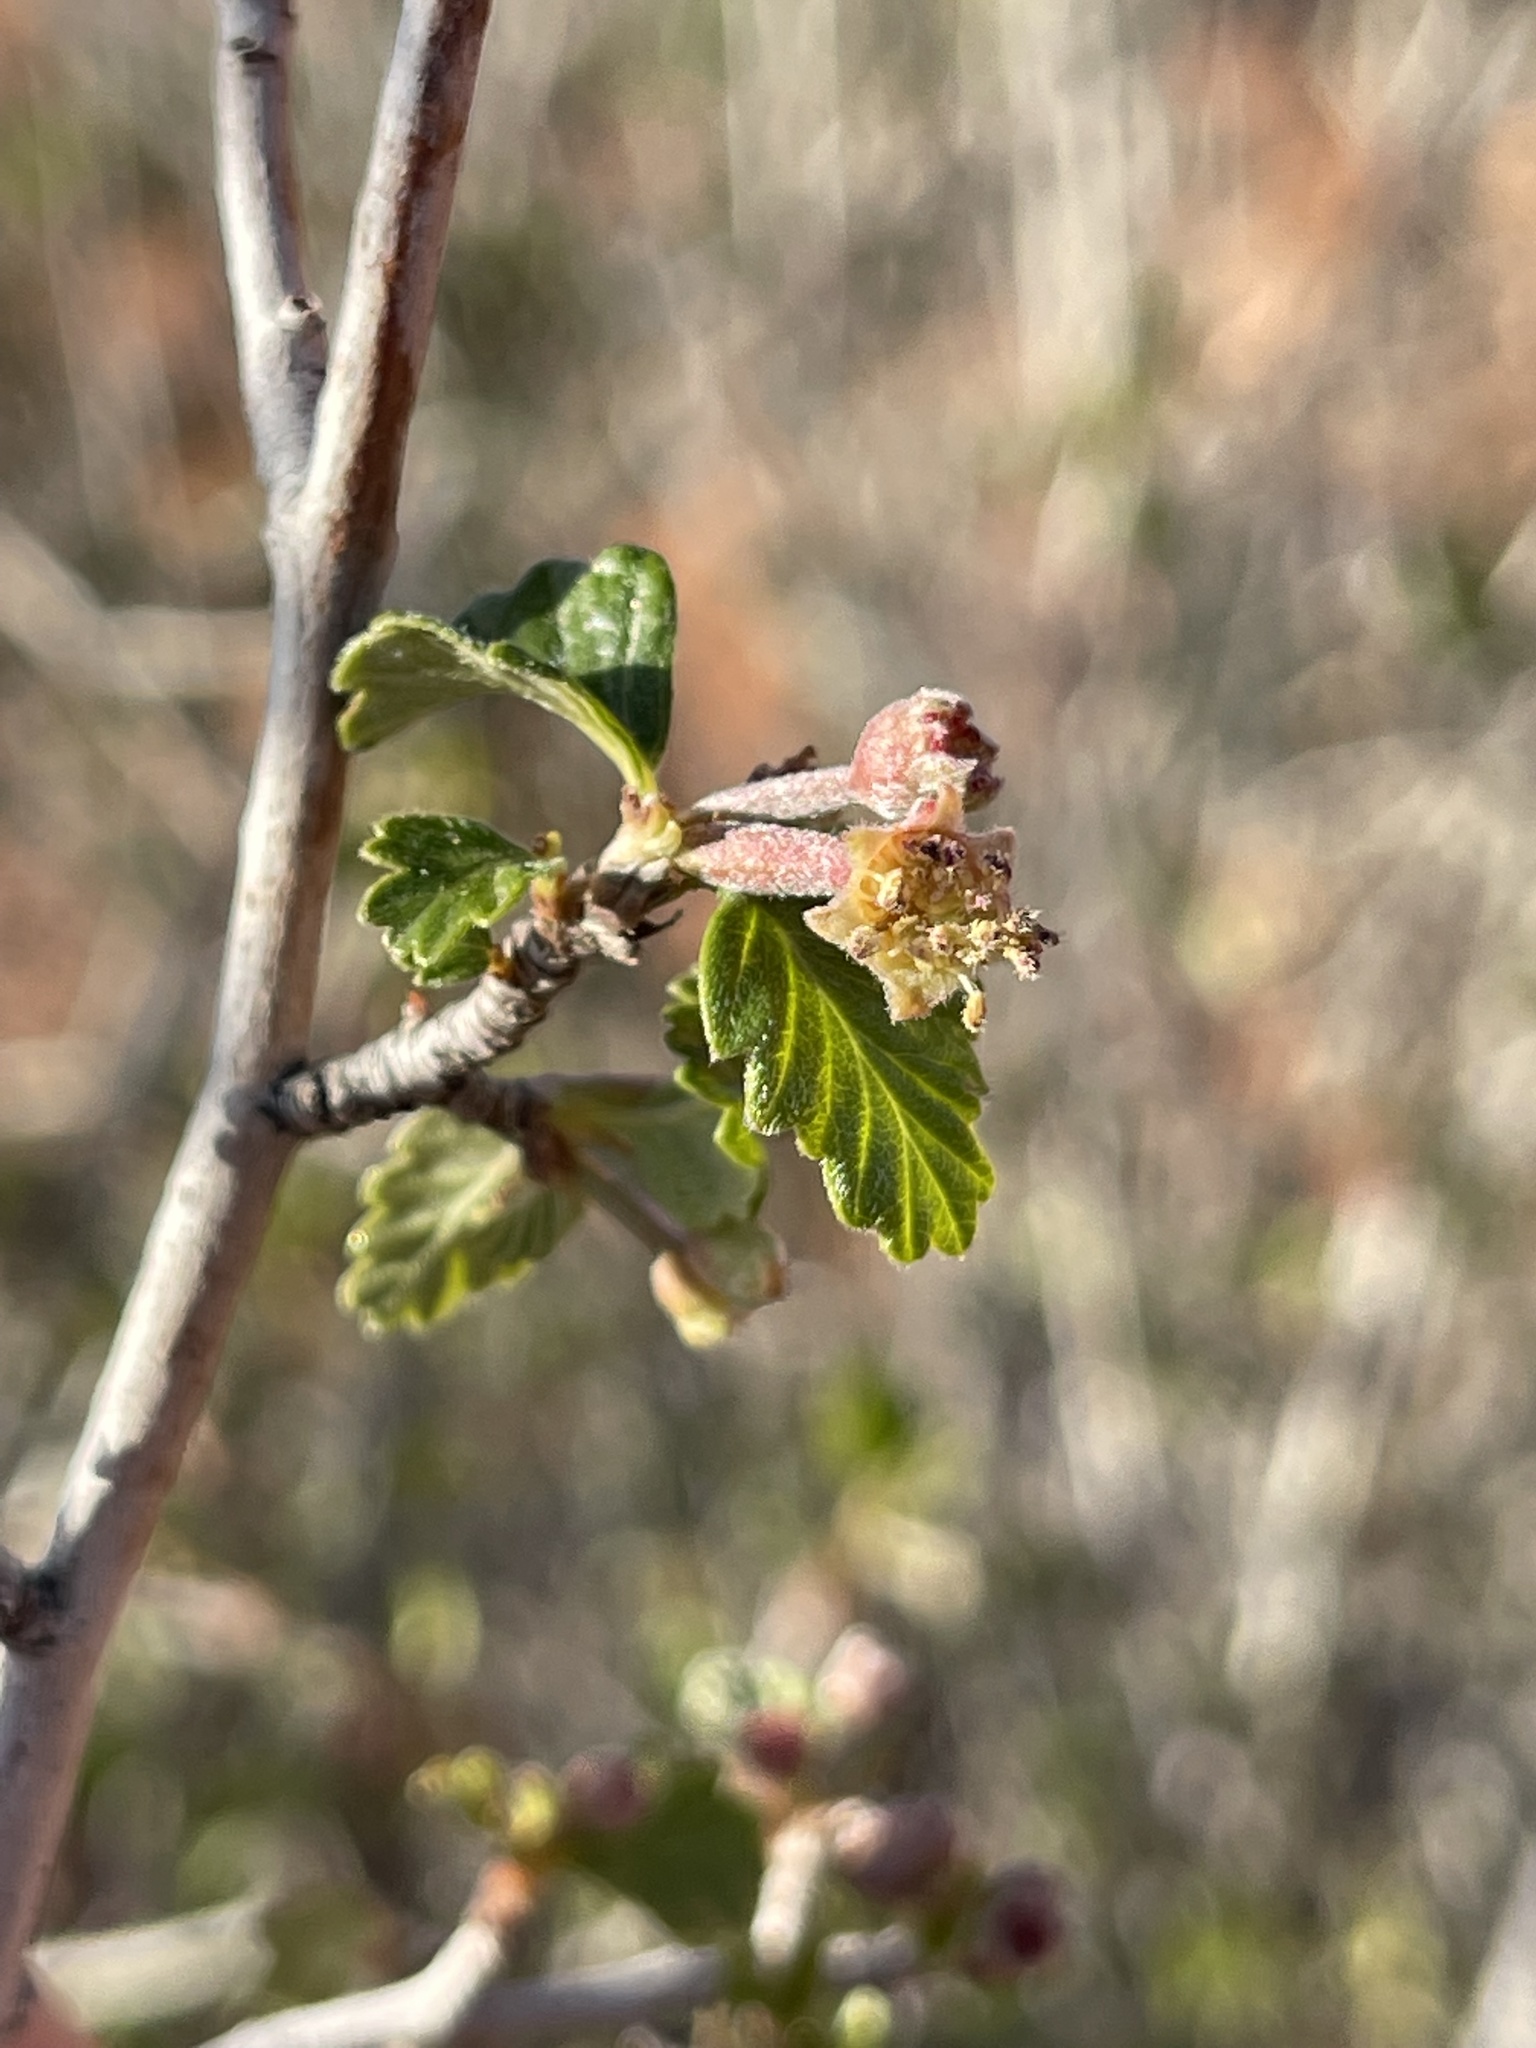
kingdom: Plantae
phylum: Tracheophyta
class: Magnoliopsida
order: Rosales
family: Rosaceae
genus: Cercocarpus
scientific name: Cercocarpus montanus
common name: Alder-leaf cercocarpus
